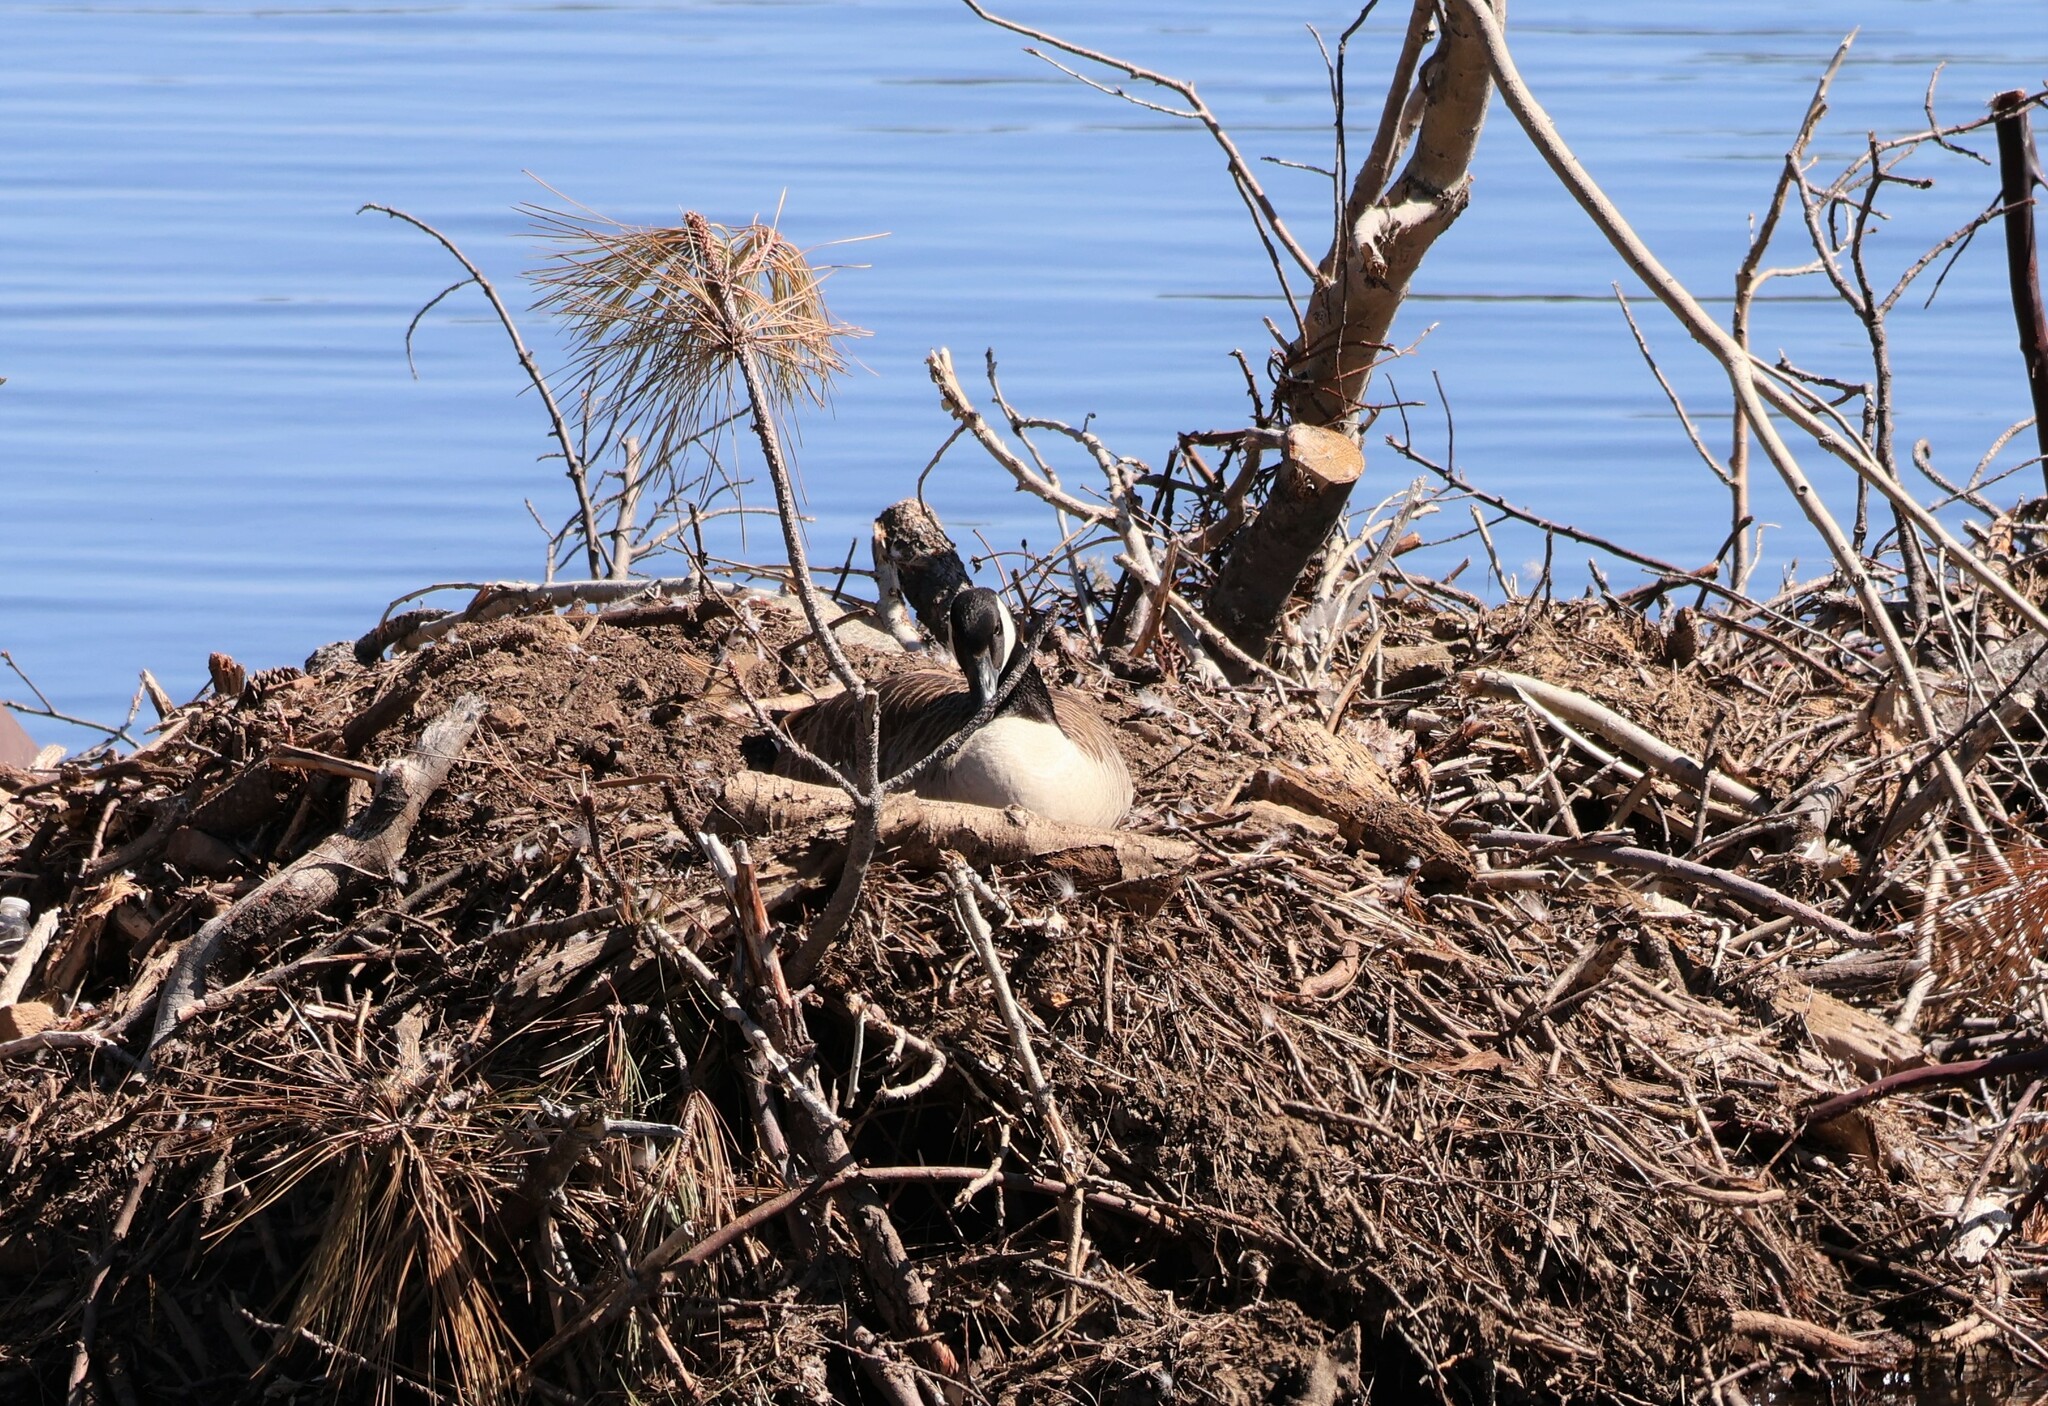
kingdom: Animalia
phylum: Chordata
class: Aves
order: Anseriformes
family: Anatidae
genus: Branta
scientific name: Branta canadensis
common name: Canada goose
